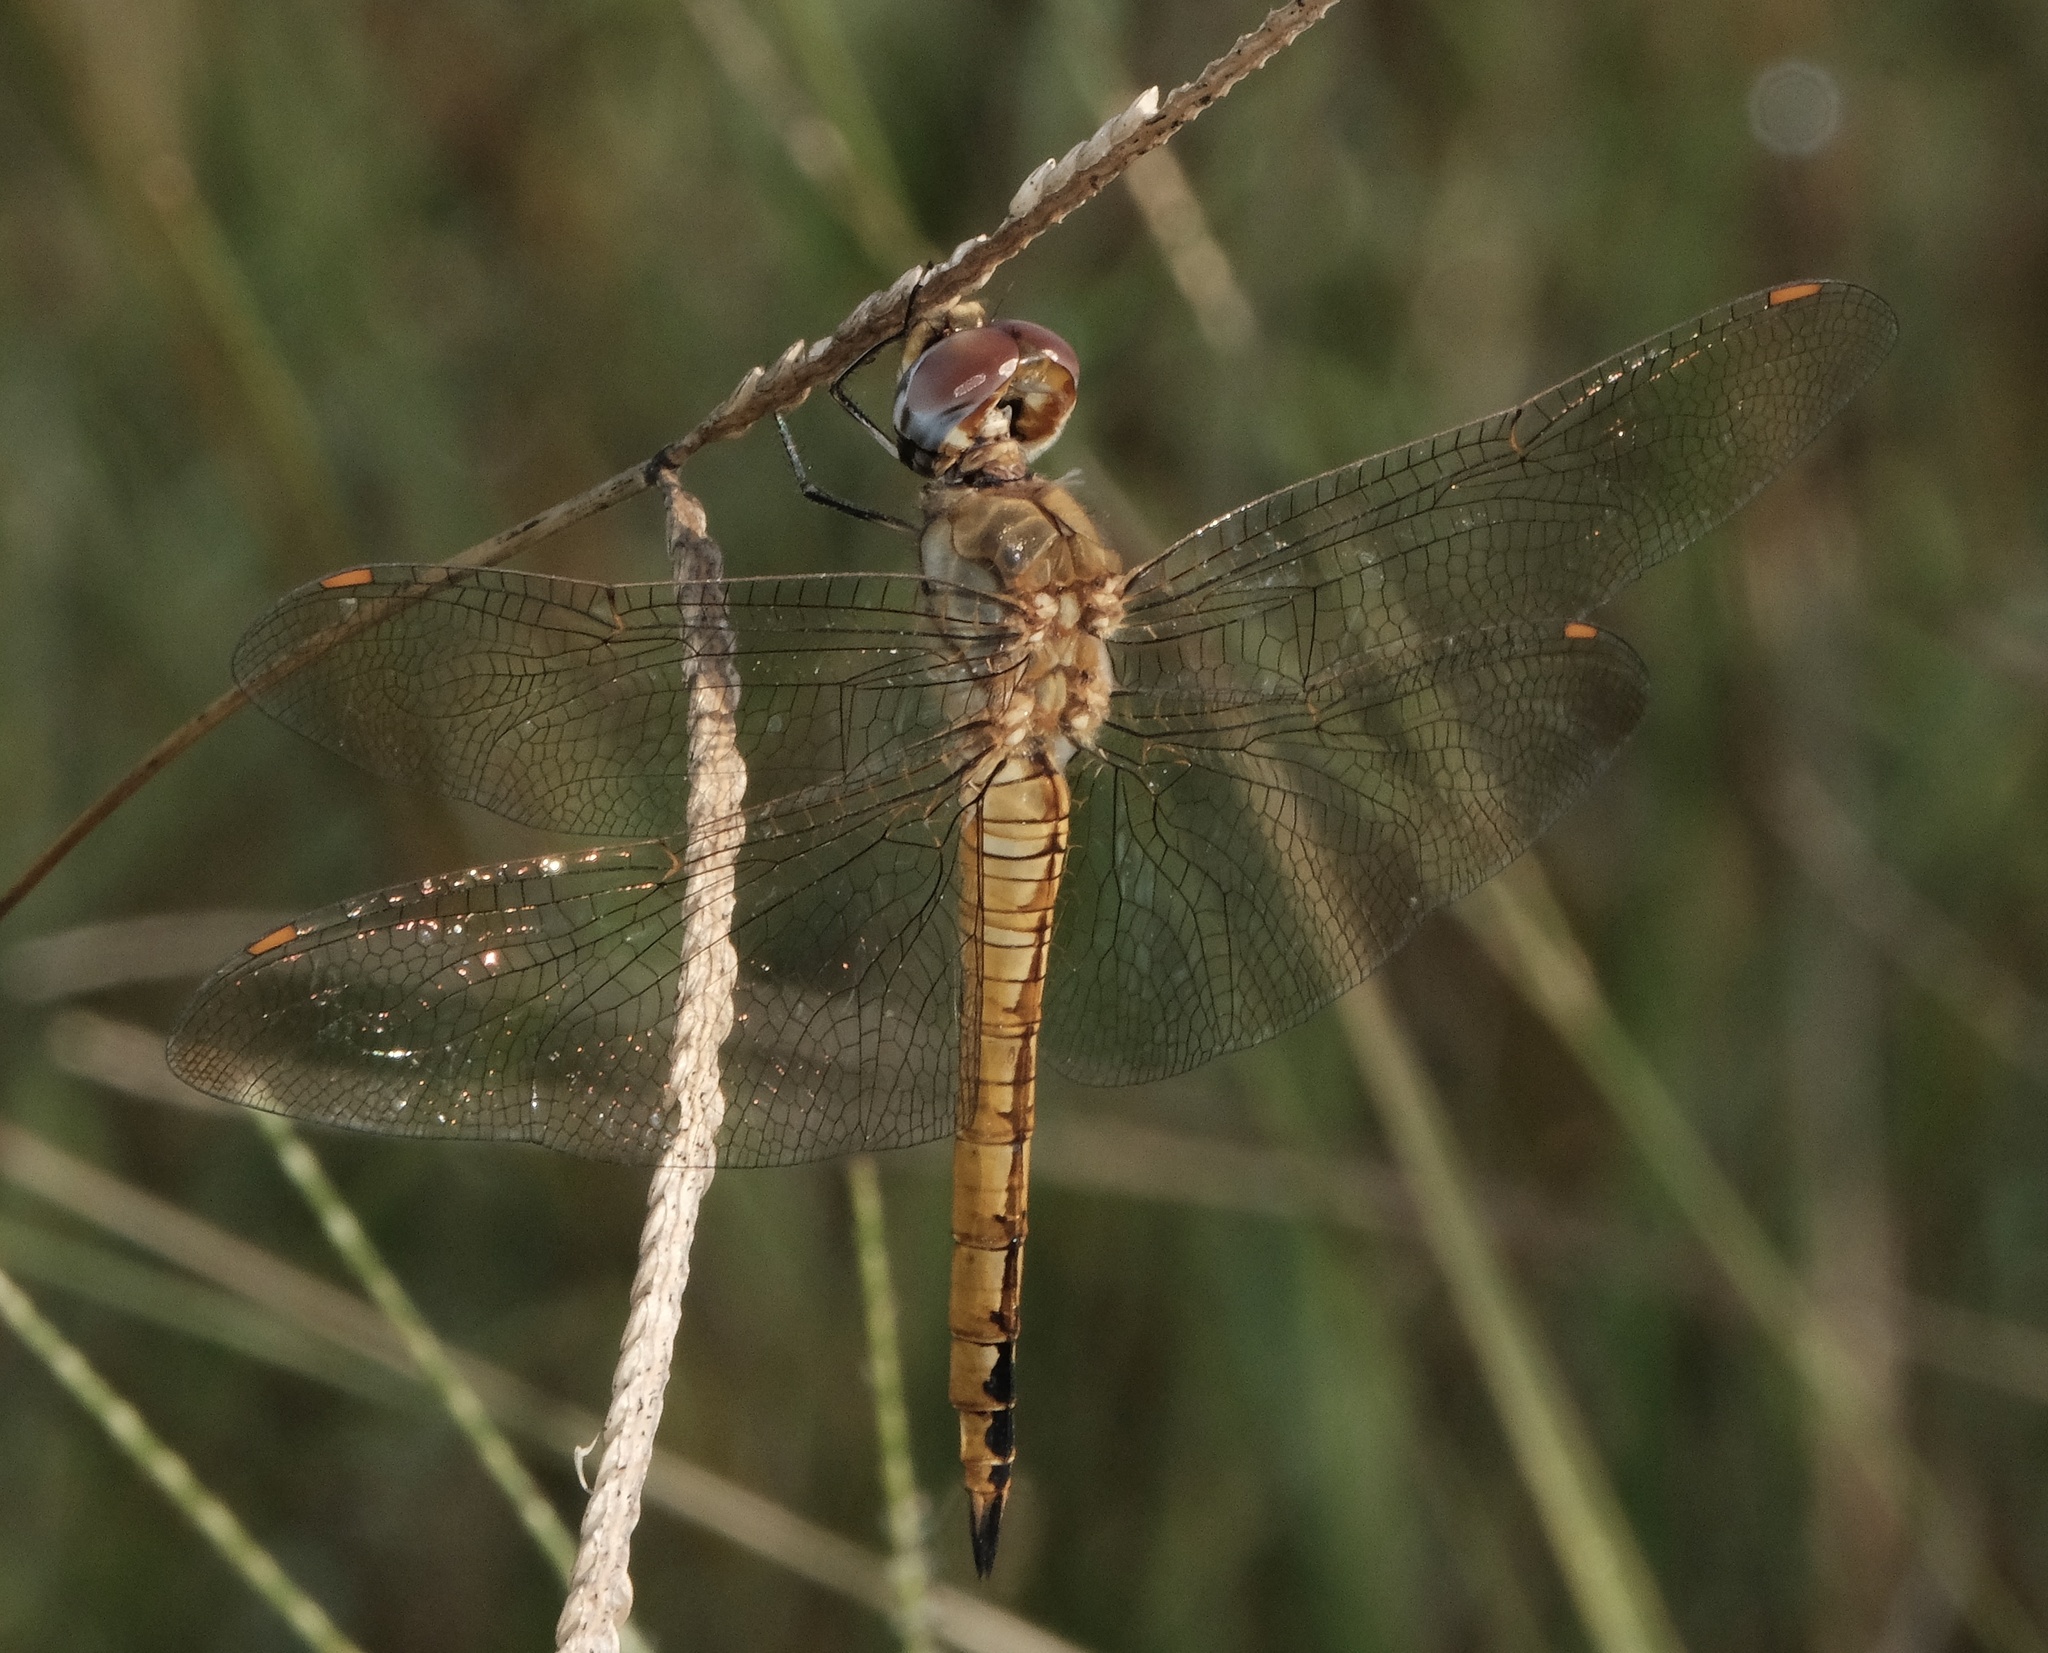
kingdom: Animalia
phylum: Arthropoda
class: Insecta
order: Odonata
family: Libellulidae
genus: Pantala
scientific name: Pantala flavescens
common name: Wandering glider
